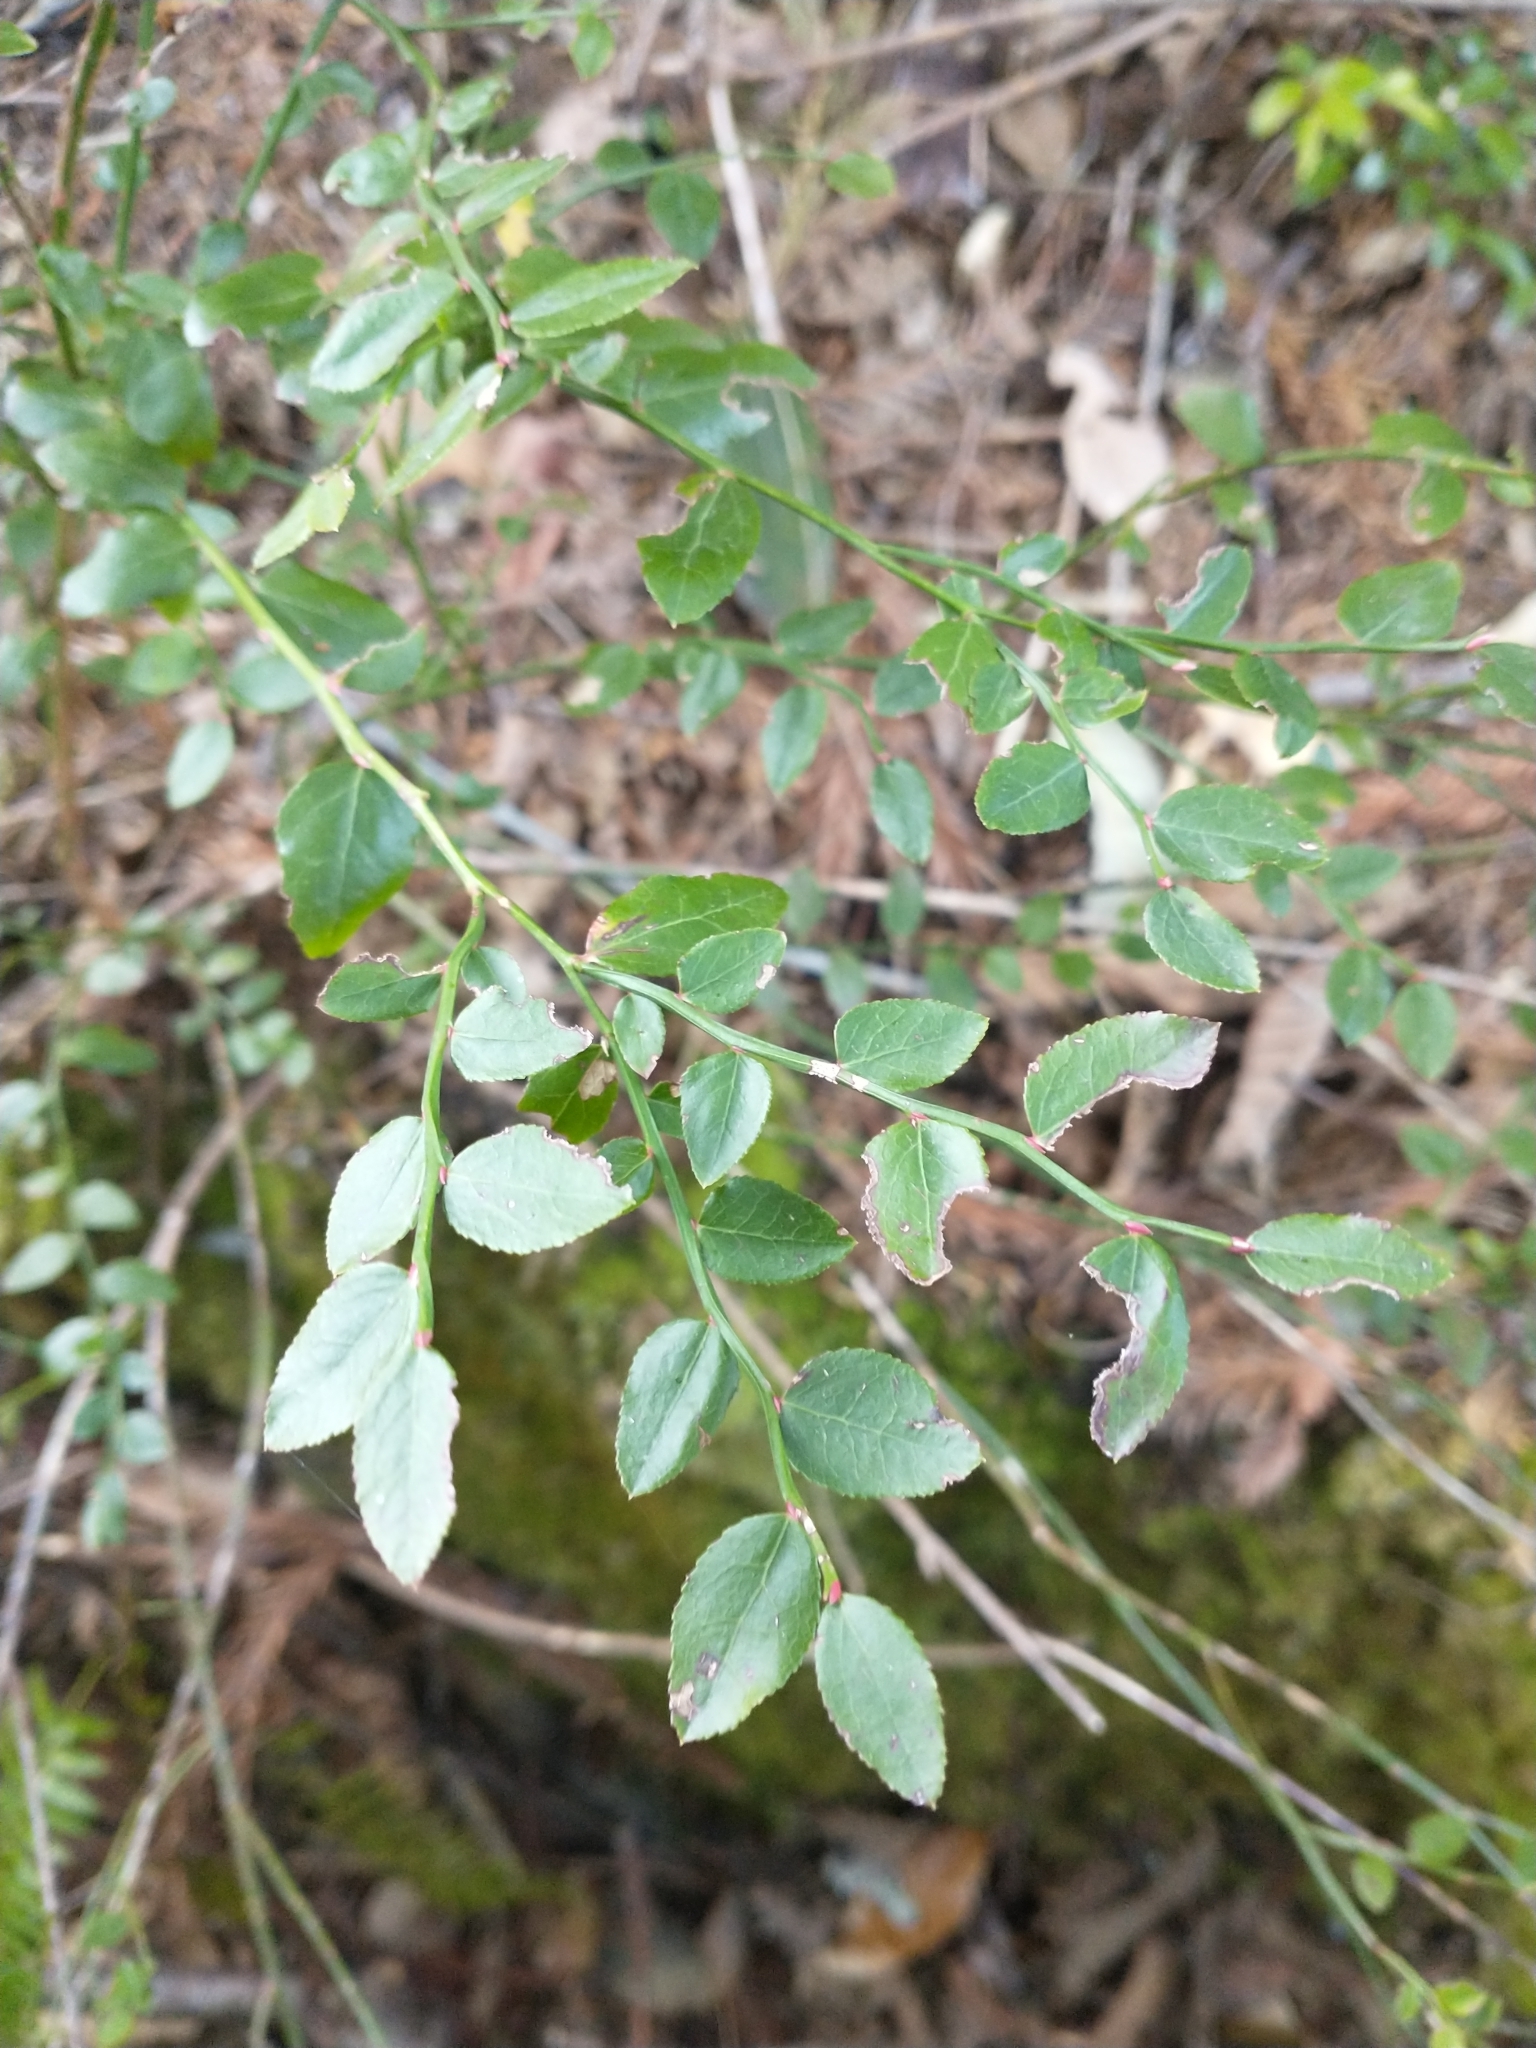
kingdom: Plantae
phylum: Tracheophyta
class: Magnoliopsida
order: Ericales
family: Ericaceae
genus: Vaccinium
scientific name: Vaccinium parvifolium
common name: Red-huckleberry
